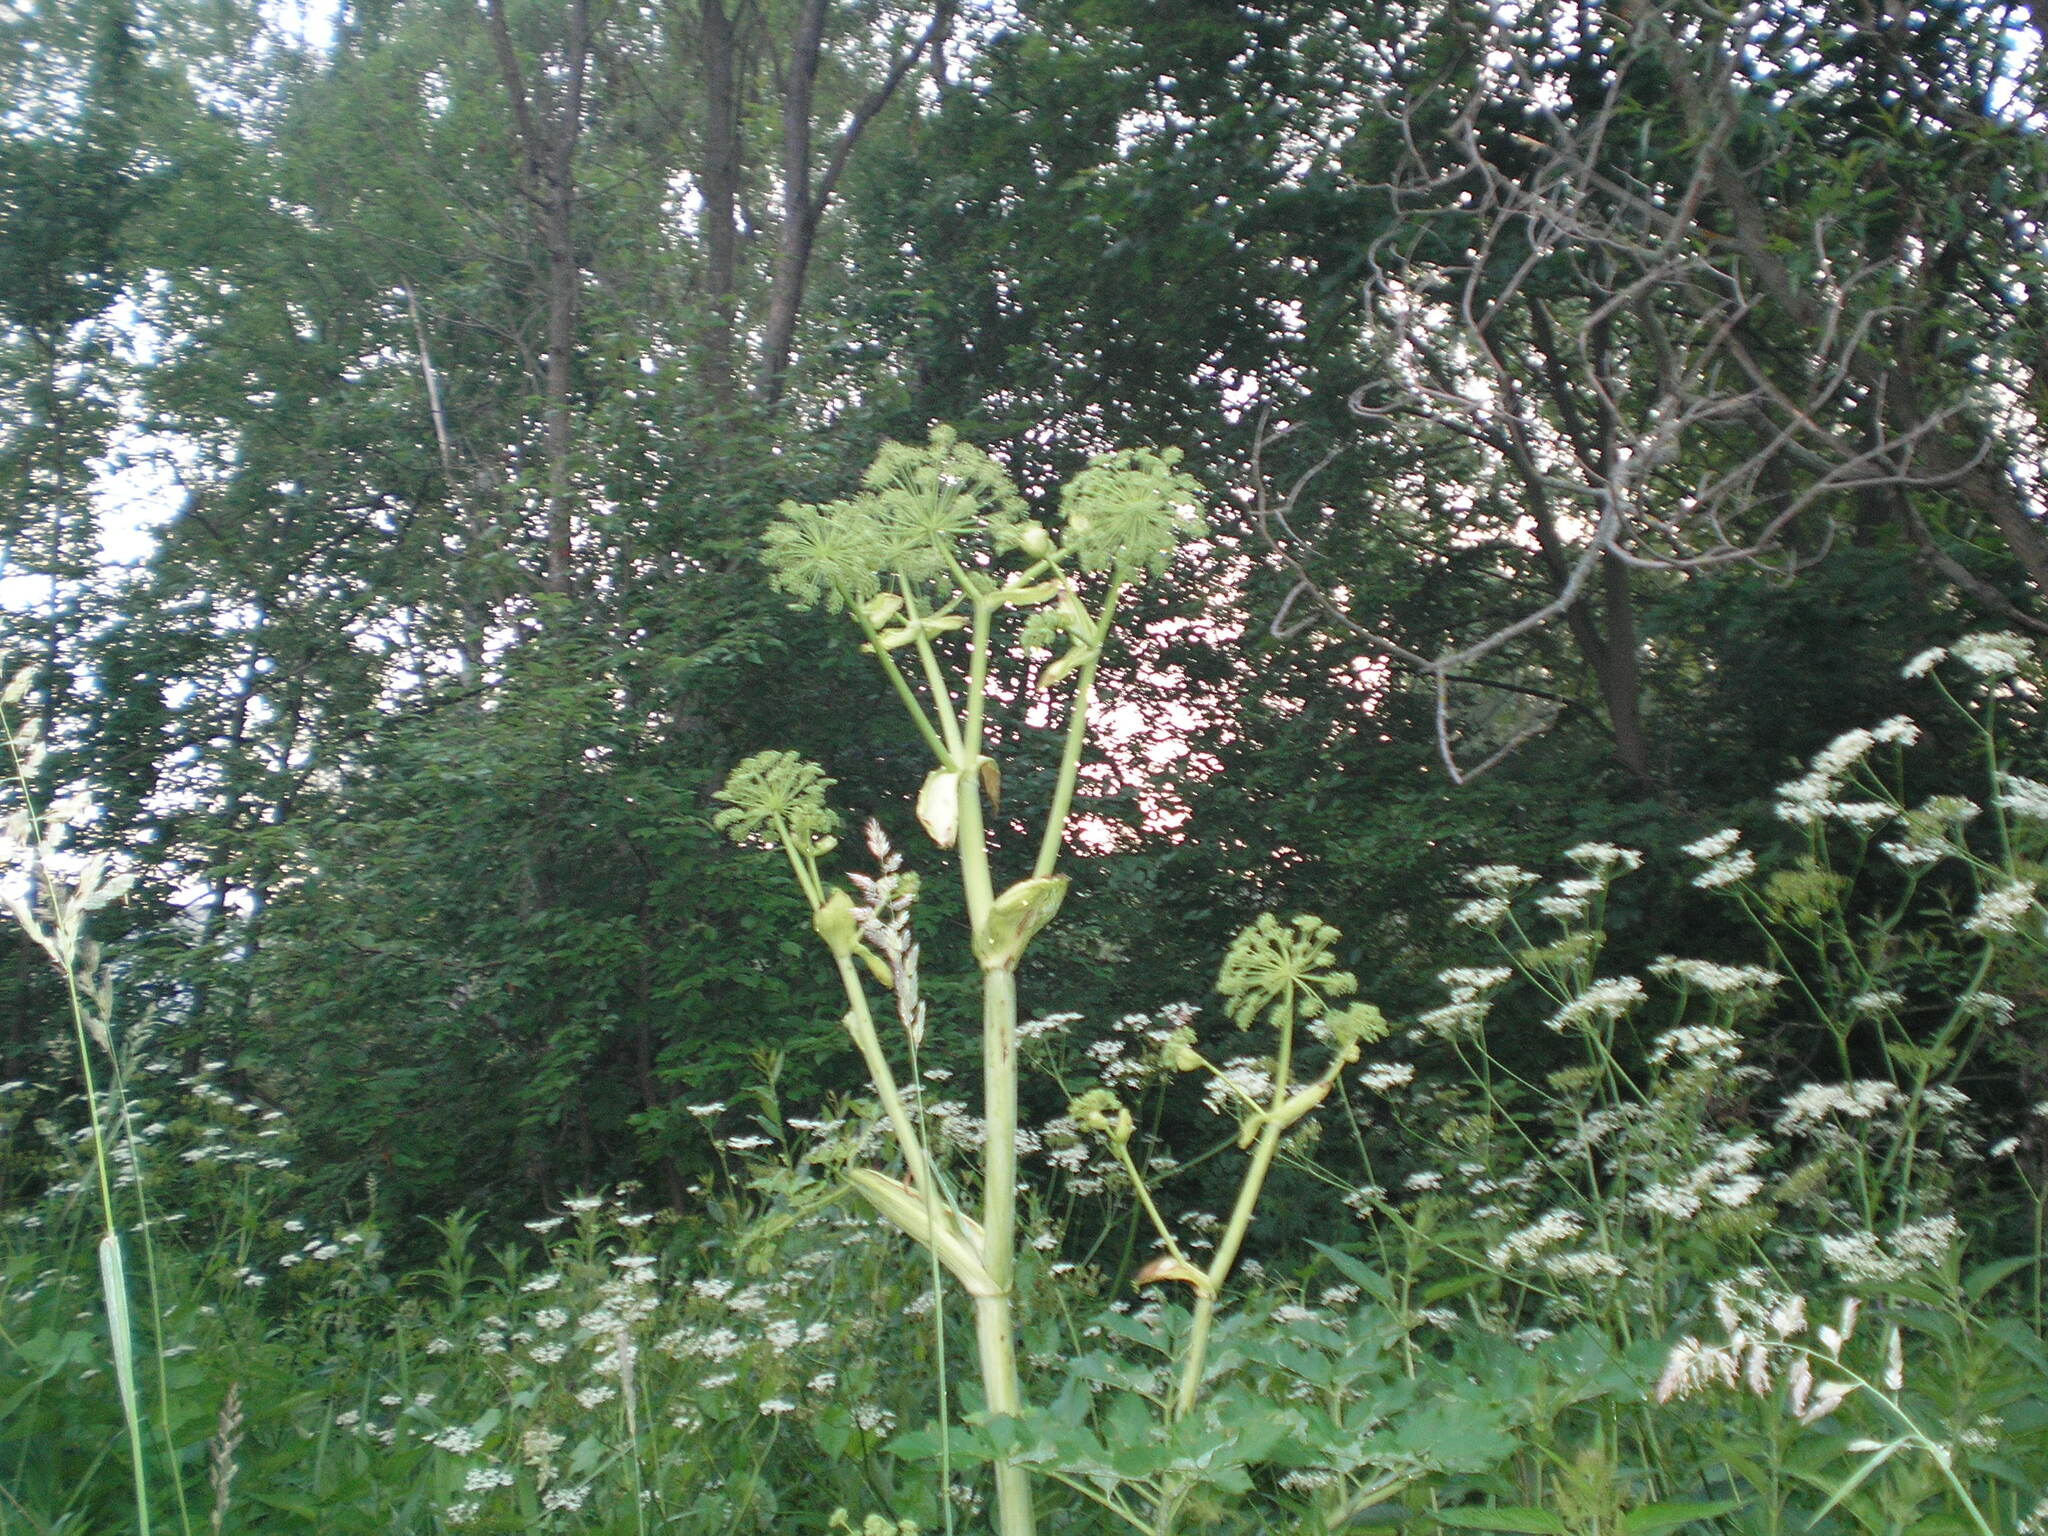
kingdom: Plantae
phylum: Tracheophyta
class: Magnoliopsida
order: Apiales
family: Apiaceae
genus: Angelica
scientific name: Angelica archangelica
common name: Garden angelica
